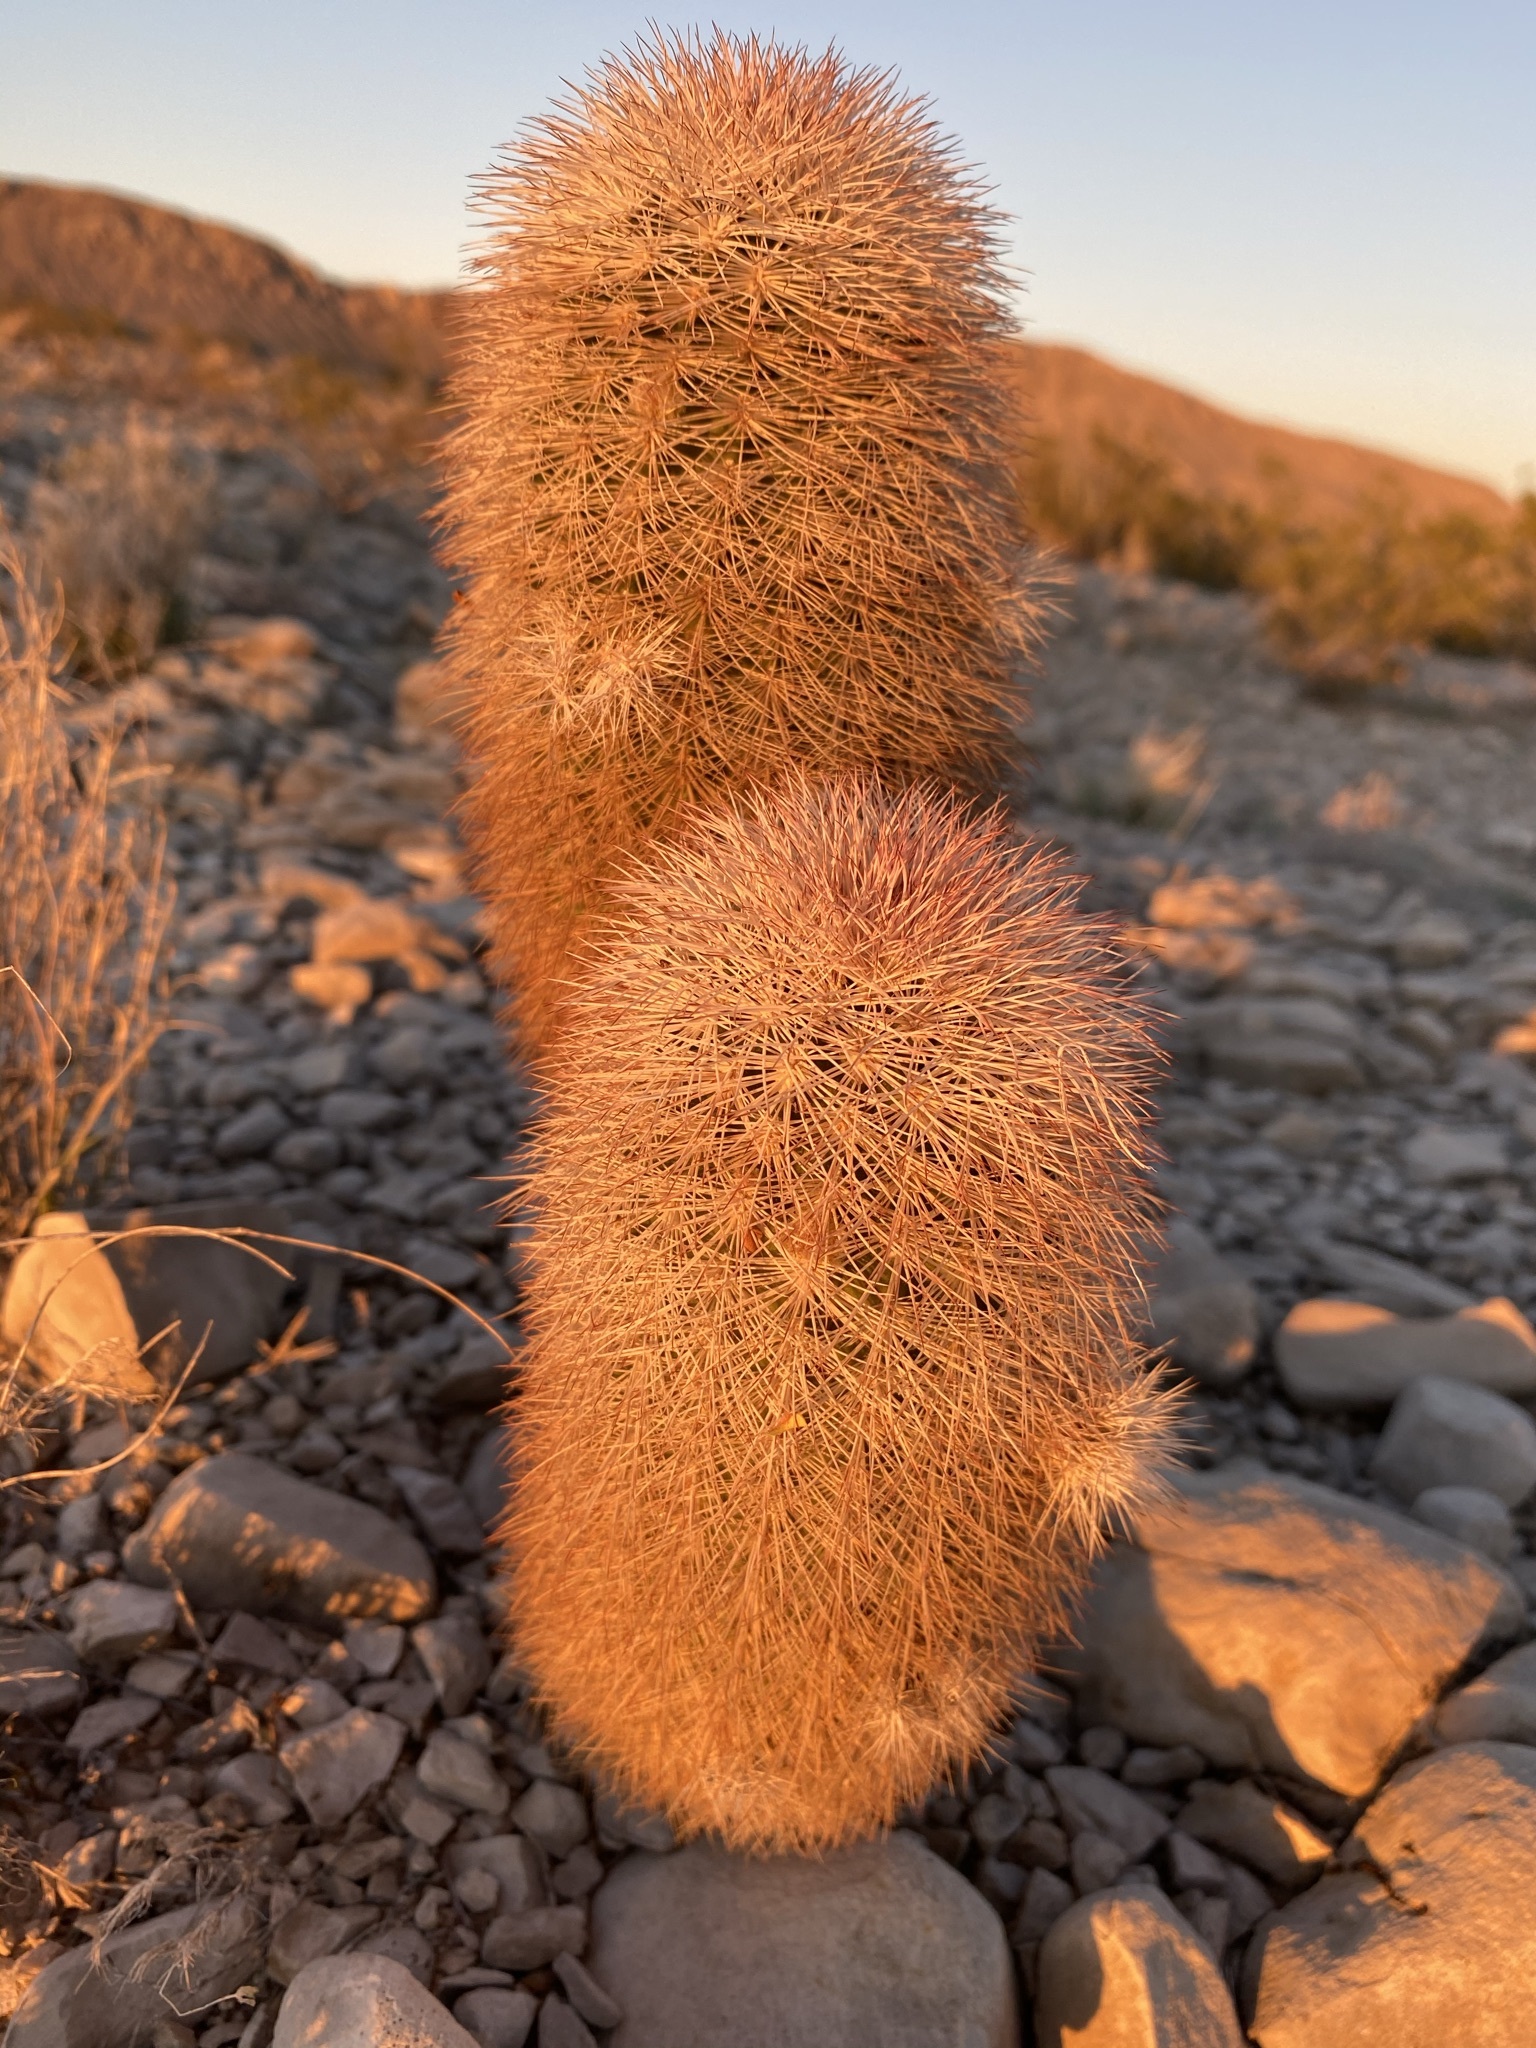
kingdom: Plantae
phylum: Tracheophyta
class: Magnoliopsida
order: Caryophyllales
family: Cactaceae
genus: Echinocereus
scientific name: Echinocereus dasyacanthus
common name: Spiny hedgehog cactus
